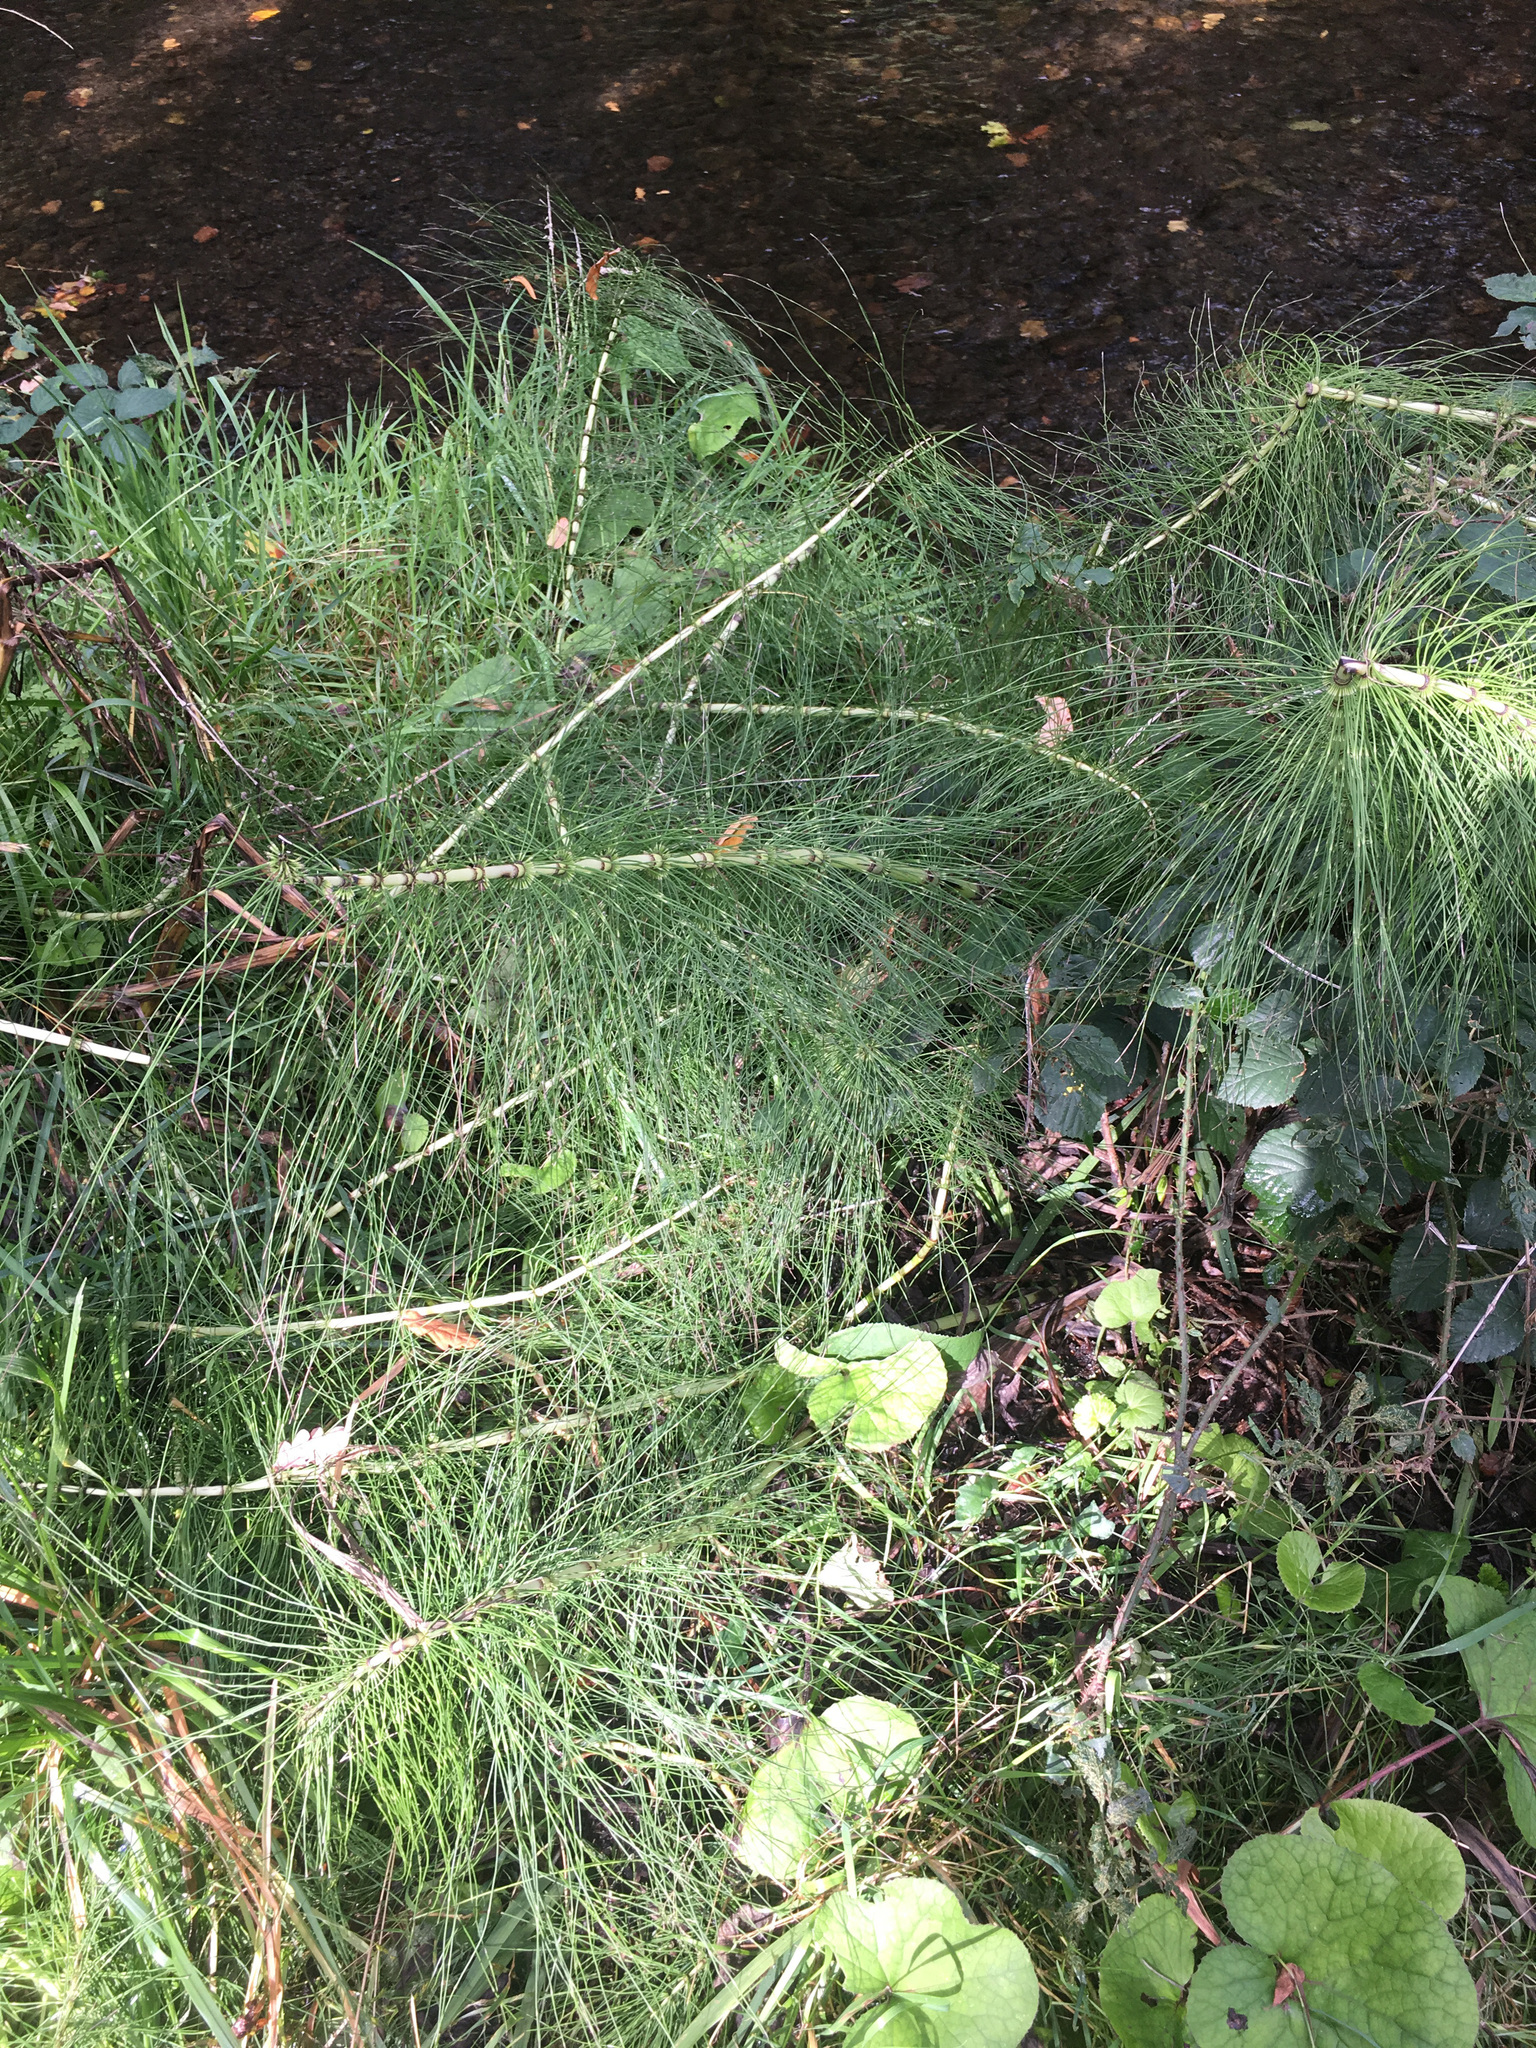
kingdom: Plantae
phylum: Tracheophyta
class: Polypodiopsida
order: Equisetales
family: Equisetaceae
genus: Equisetum
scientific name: Equisetum telmateia
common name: Great horsetail
